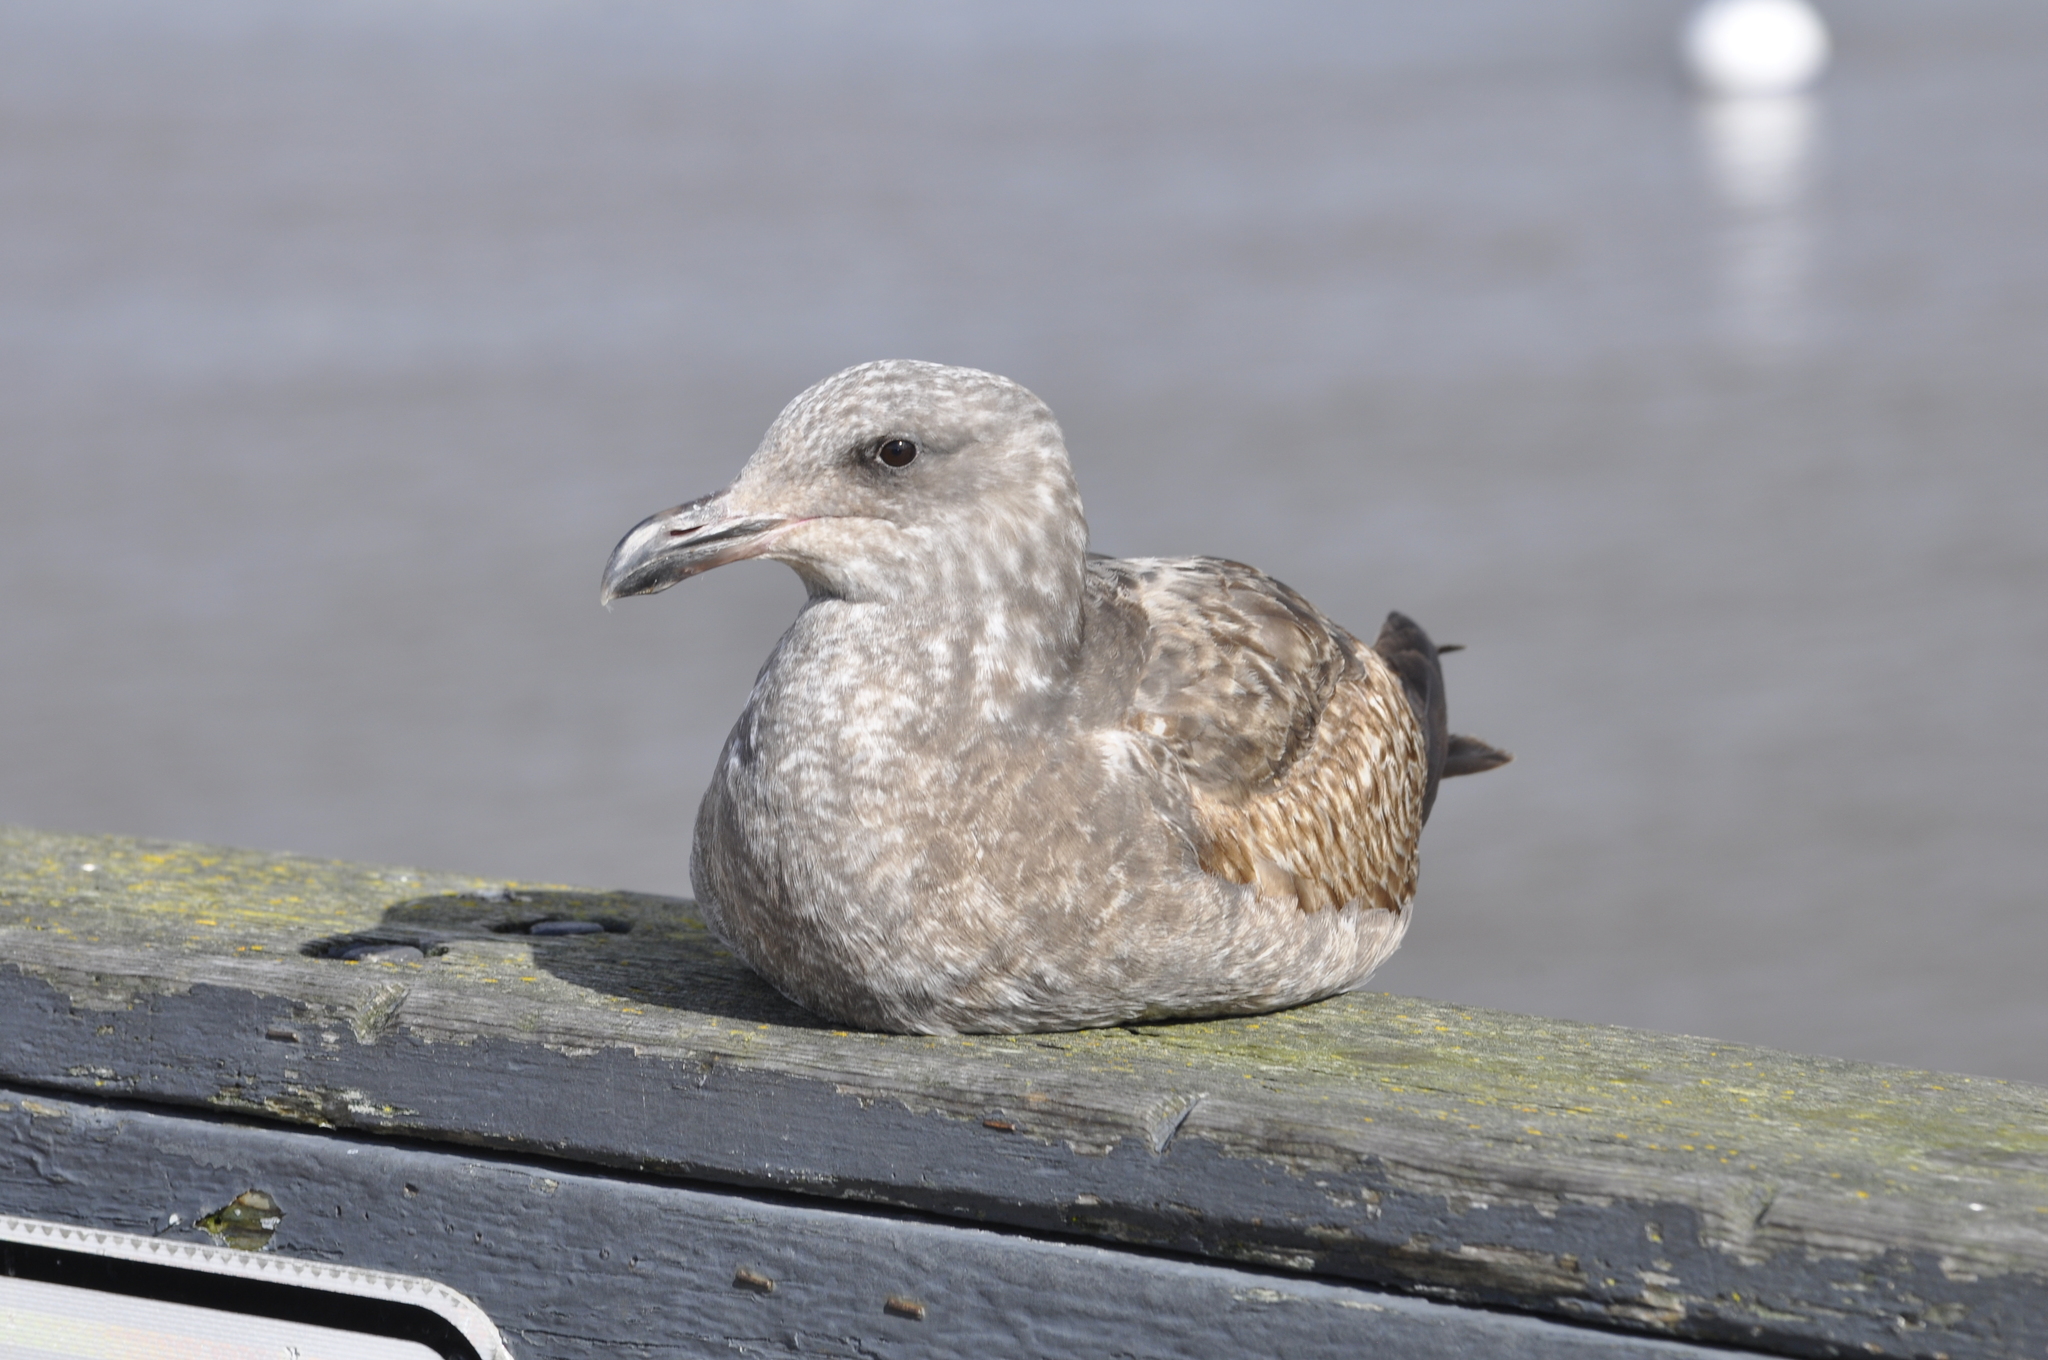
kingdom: Animalia
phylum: Chordata
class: Aves
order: Charadriiformes
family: Laridae
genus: Larus
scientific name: Larus occidentalis
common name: Western gull
